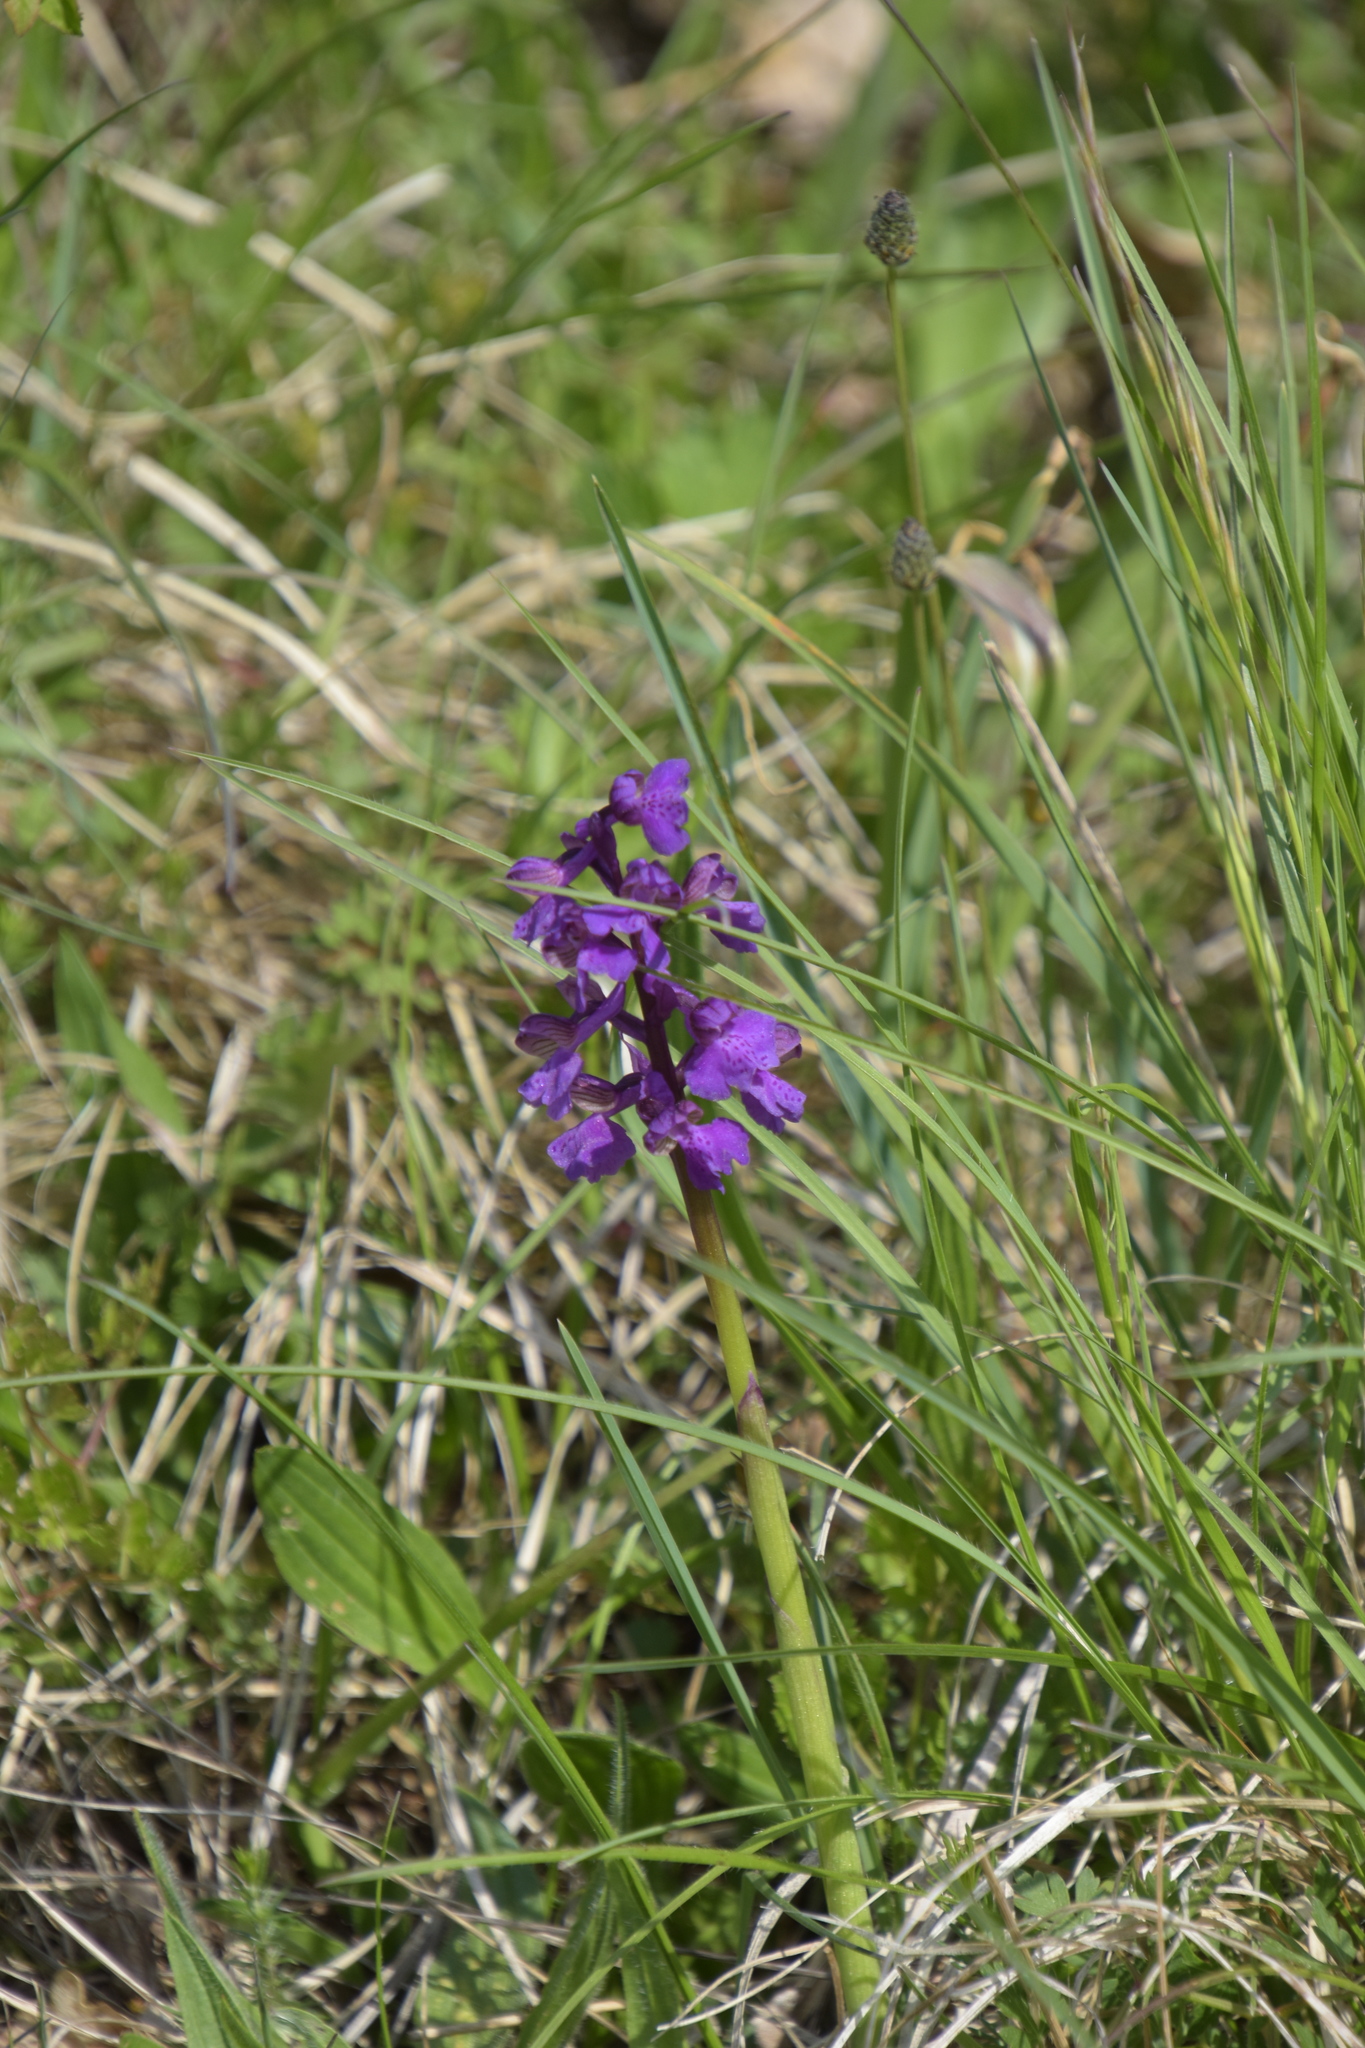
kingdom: Plantae
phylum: Tracheophyta
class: Liliopsida
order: Asparagales
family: Orchidaceae
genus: Anacamptis
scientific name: Anacamptis morio
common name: Green-winged orchid
